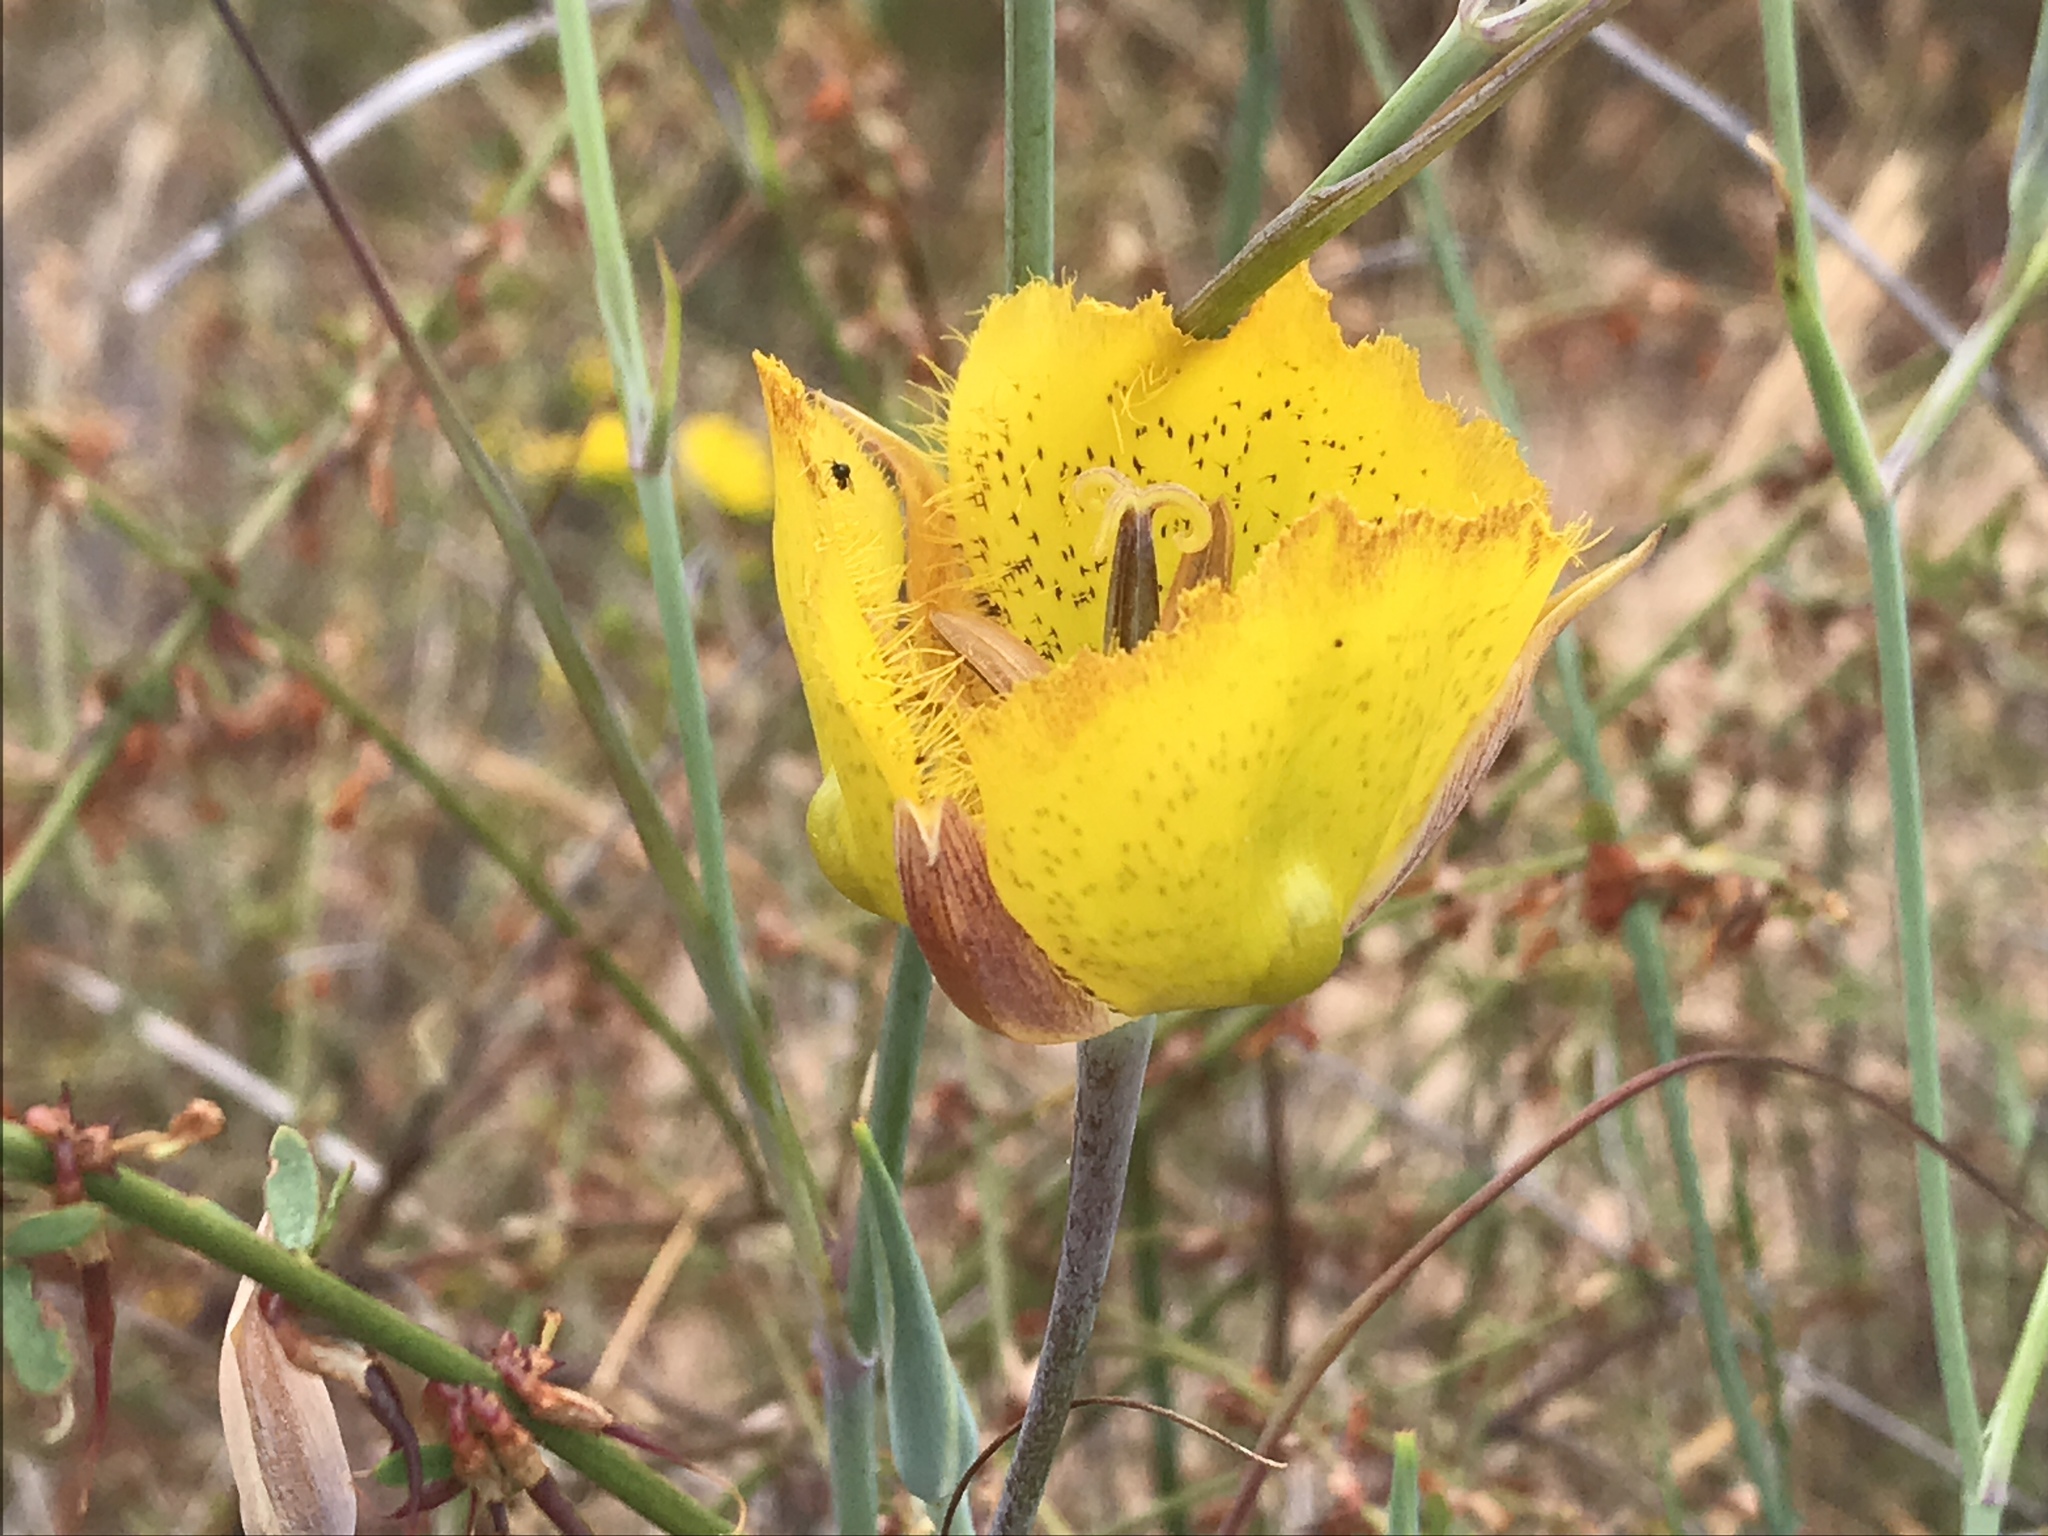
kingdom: Plantae
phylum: Tracheophyta
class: Liliopsida
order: Liliales
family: Liliaceae
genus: Calochortus
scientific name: Calochortus weedii
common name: Weed's mariposa-lily
